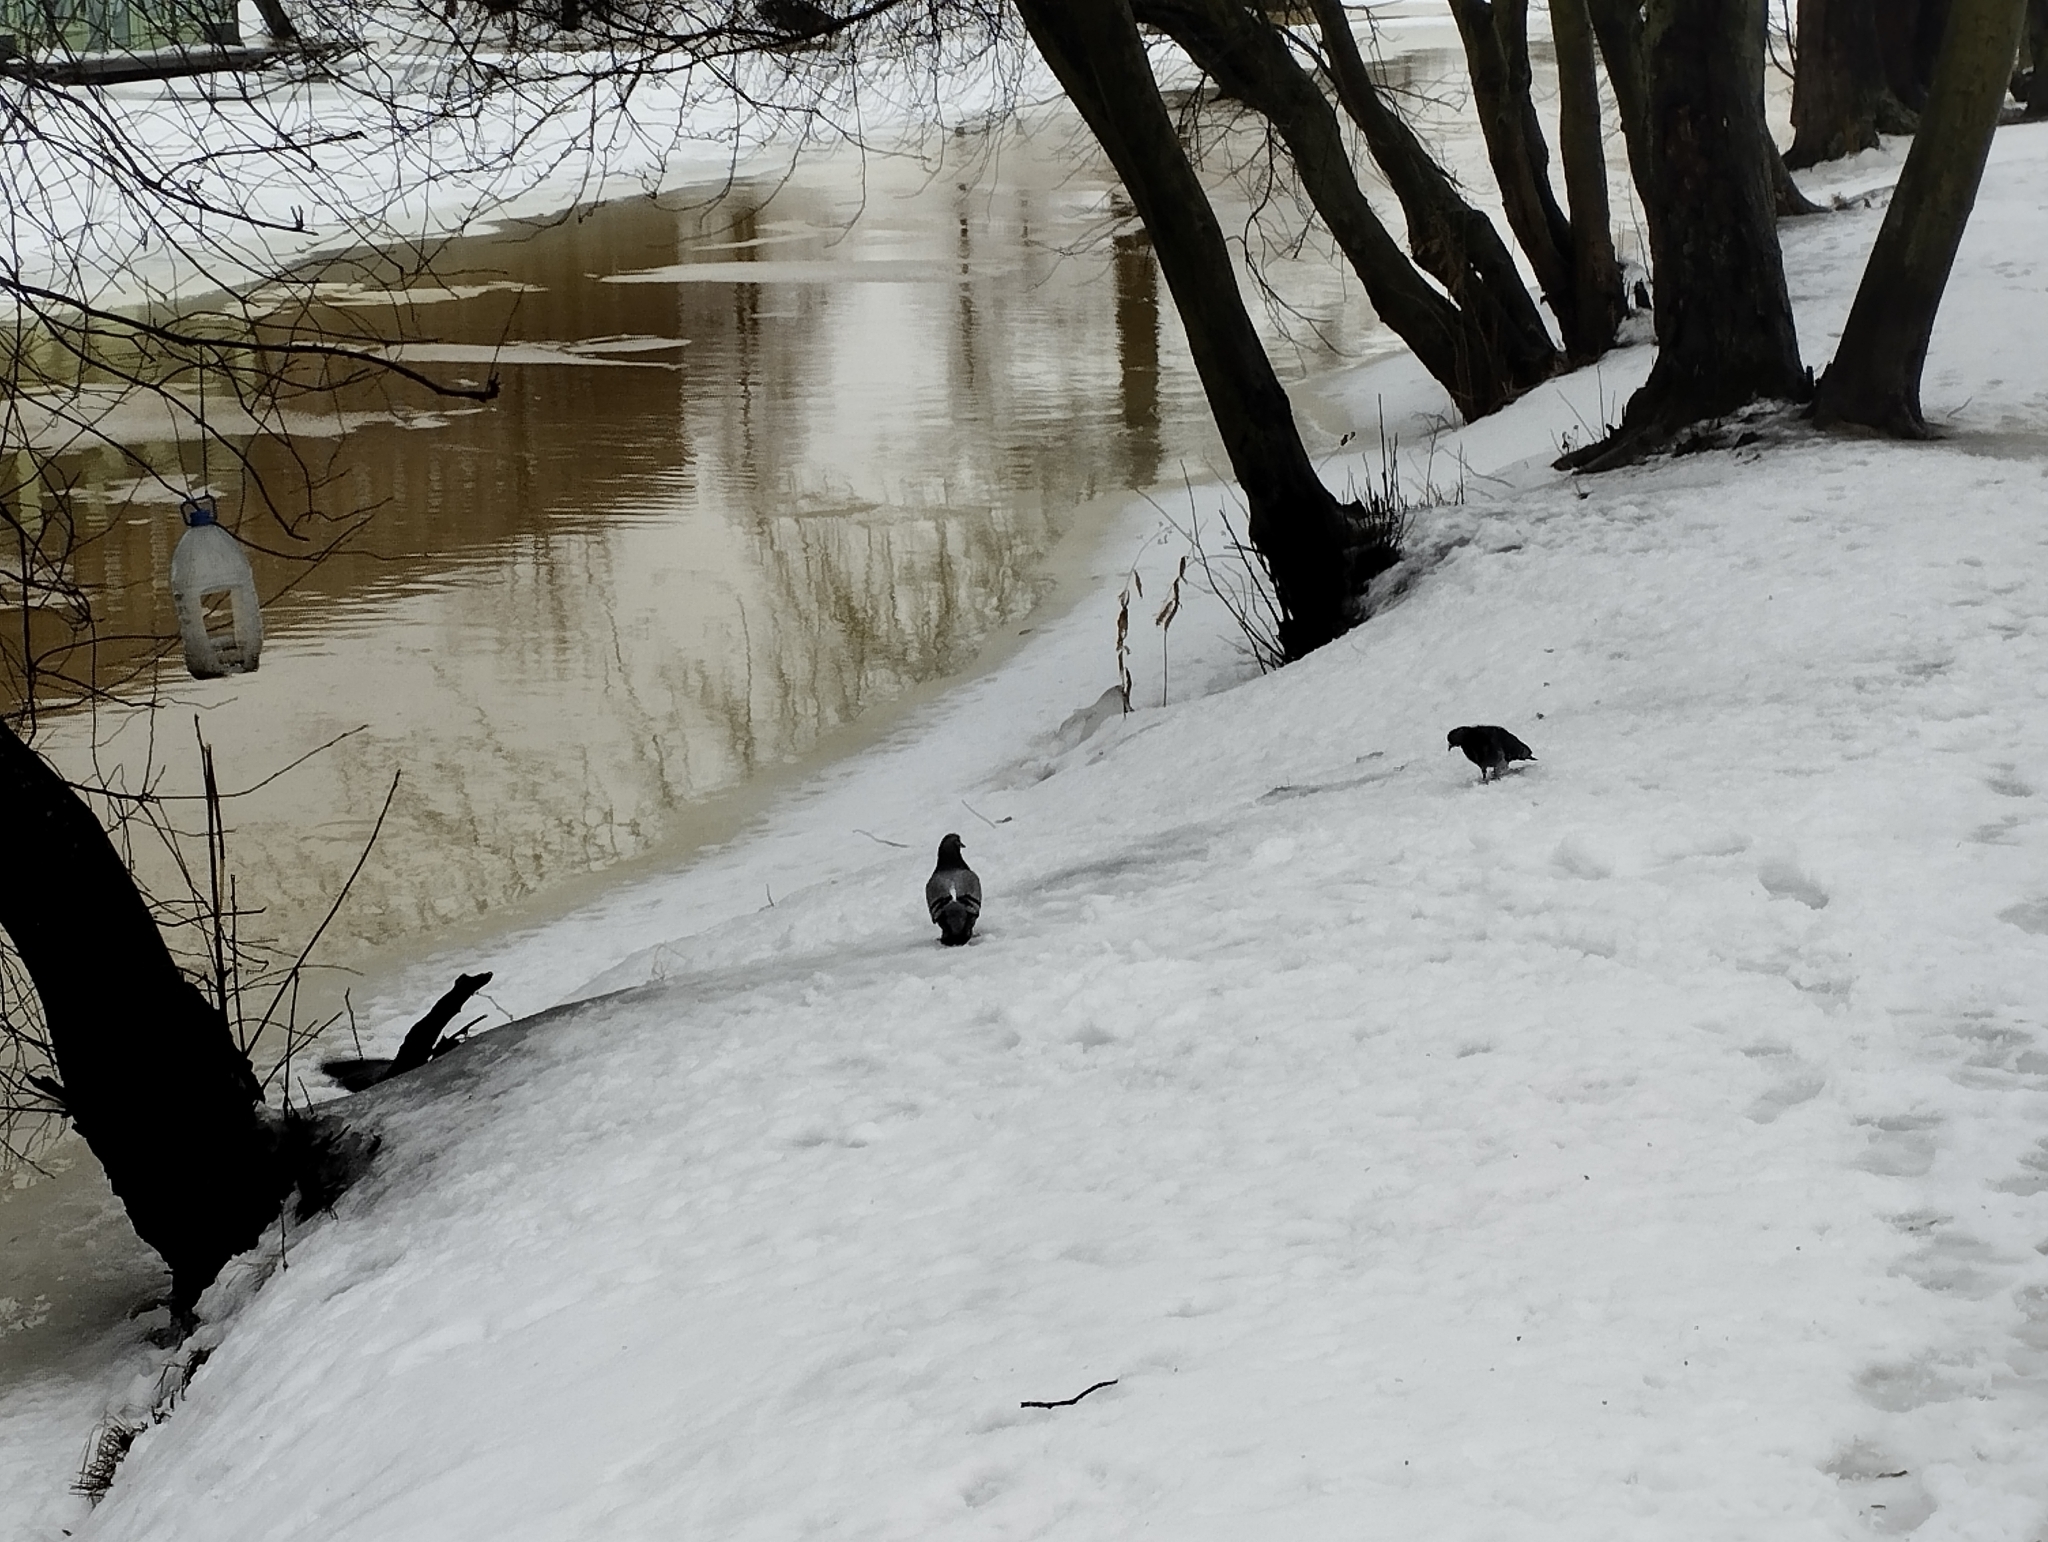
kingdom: Animalia
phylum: Chordata
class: Aves
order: Columbiformes
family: Columbidae
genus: Columba
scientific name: Columba livia
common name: Rock pigeon
